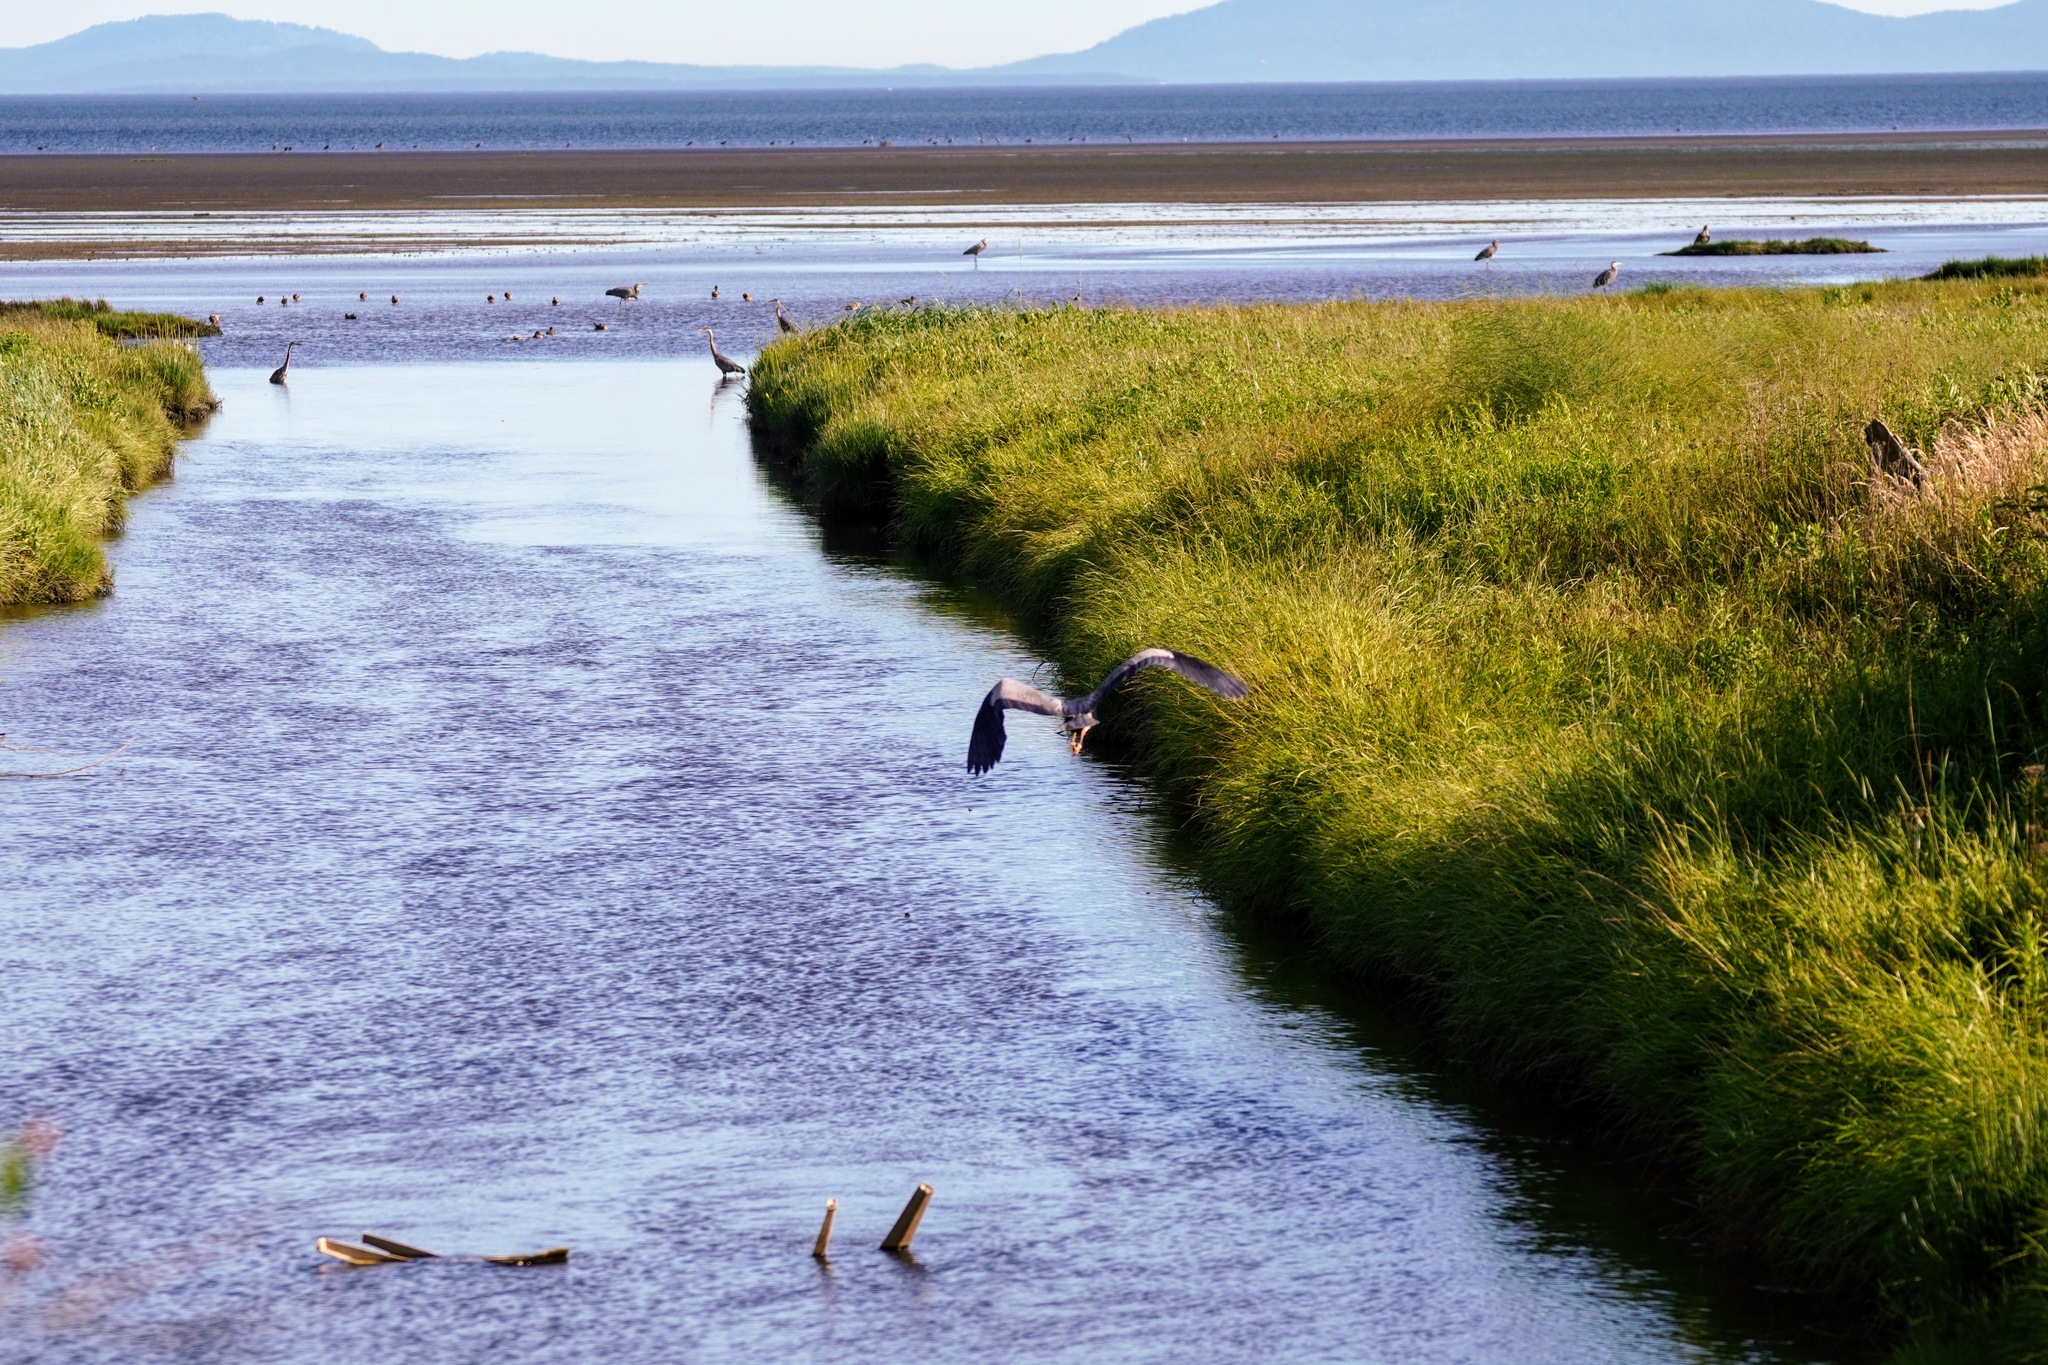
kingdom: Animalia
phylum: Chordata
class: Aves
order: Pelecaniformes
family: Ardeidae
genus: Ardea
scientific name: Ardea herodias
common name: Great blue heron
